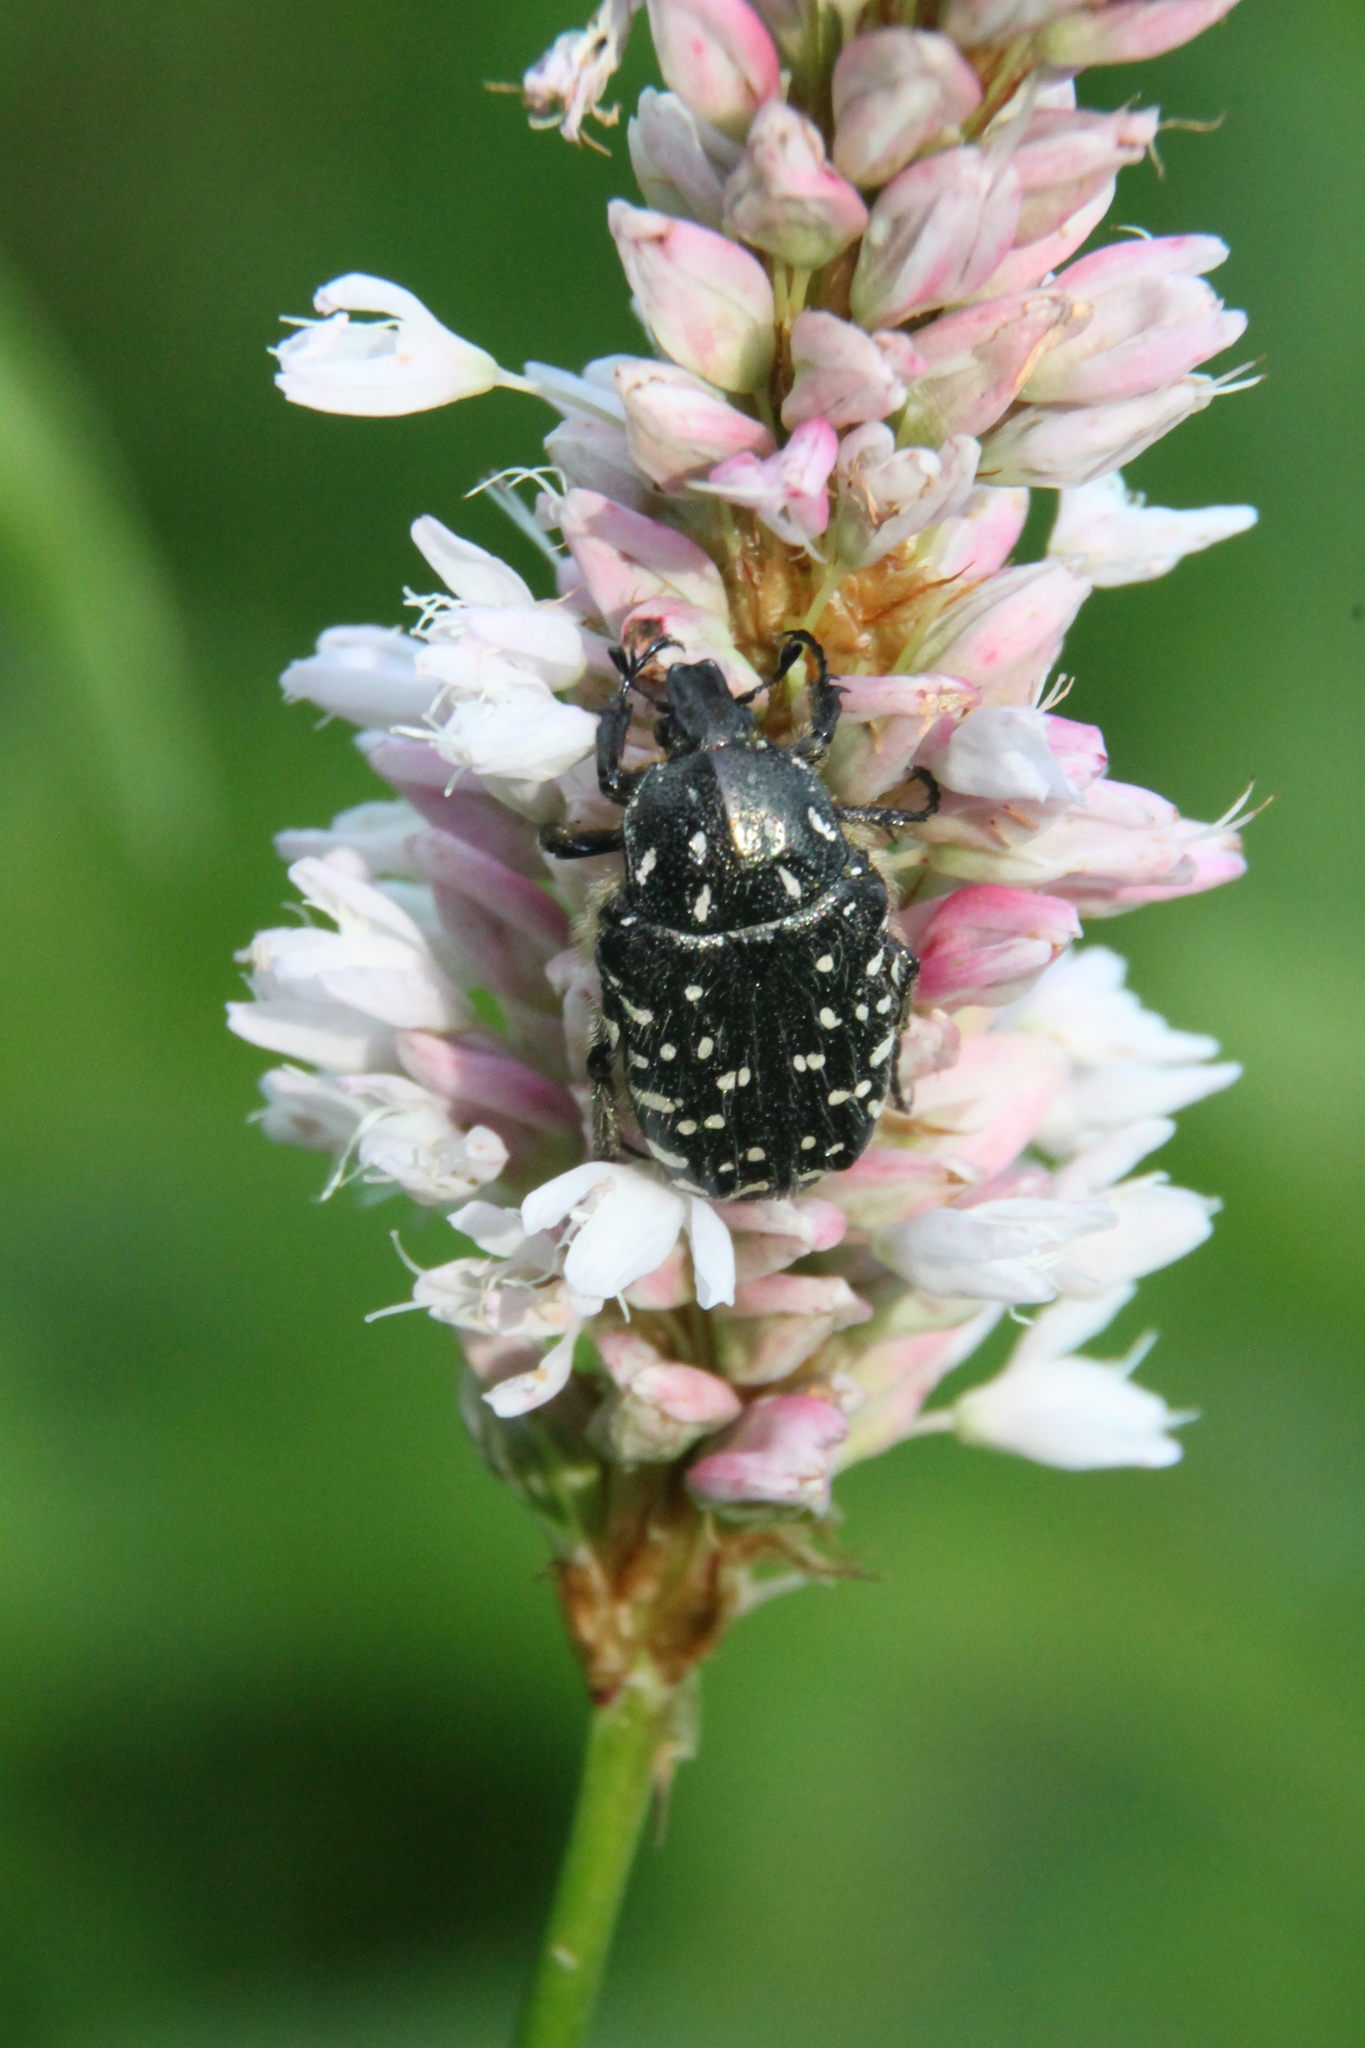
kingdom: Animalia
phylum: Arthropoda
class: Insecta
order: Coleoptera
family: Scarabaeidae
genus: Oxythyrea
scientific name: Oxythyrea funesta
